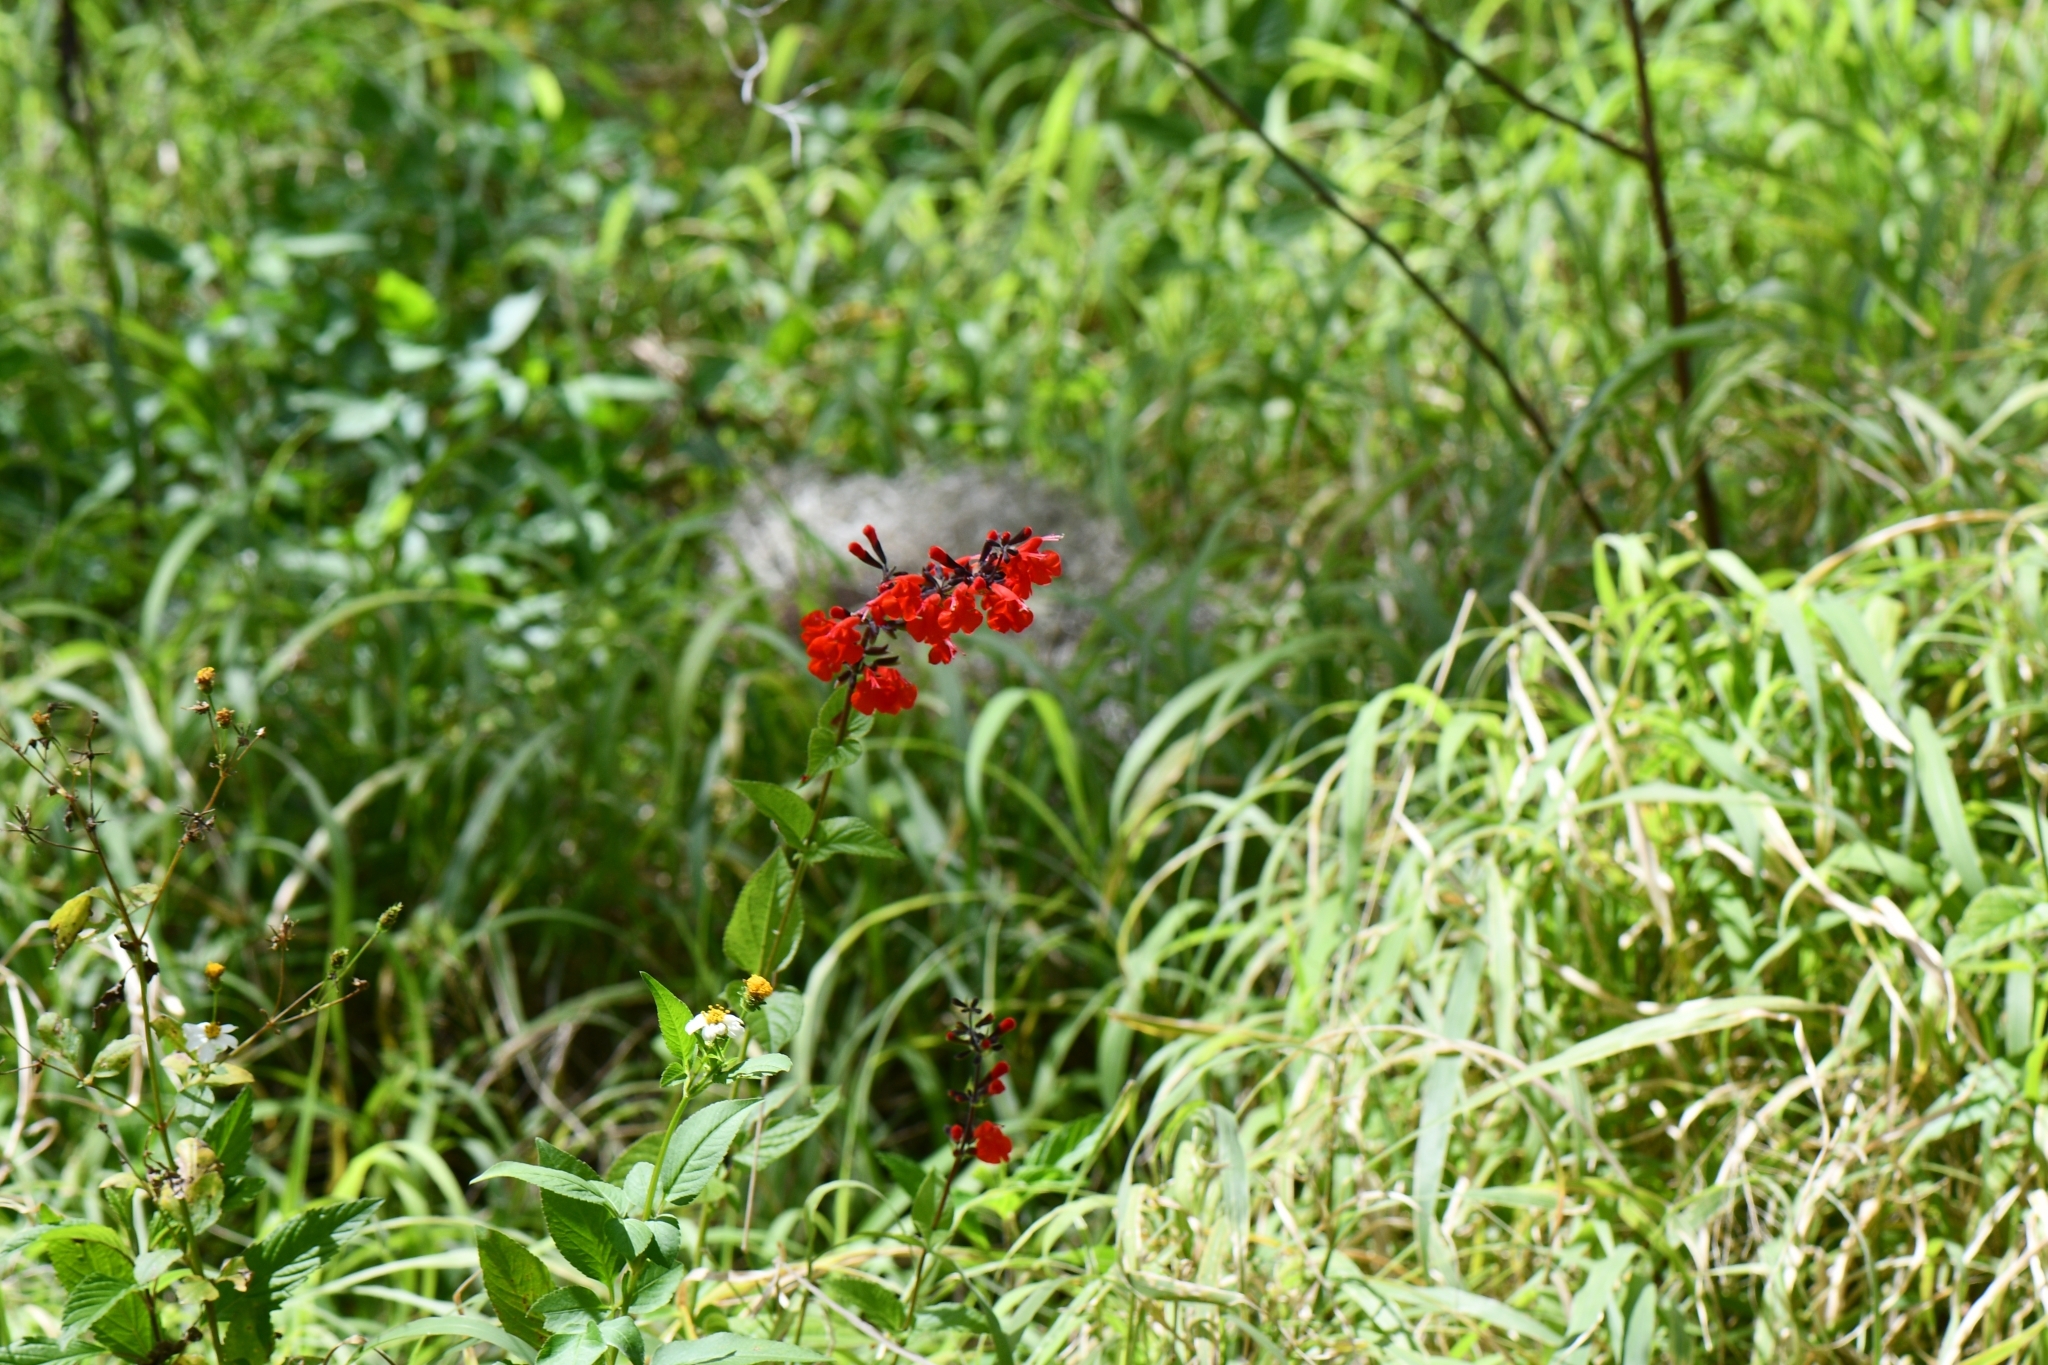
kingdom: Plantae
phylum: Tracheophyta
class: Magnoliopsida
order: Lamiales
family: Lamiaceae
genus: Salvia
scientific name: Salvia coccinea
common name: Blood sage
